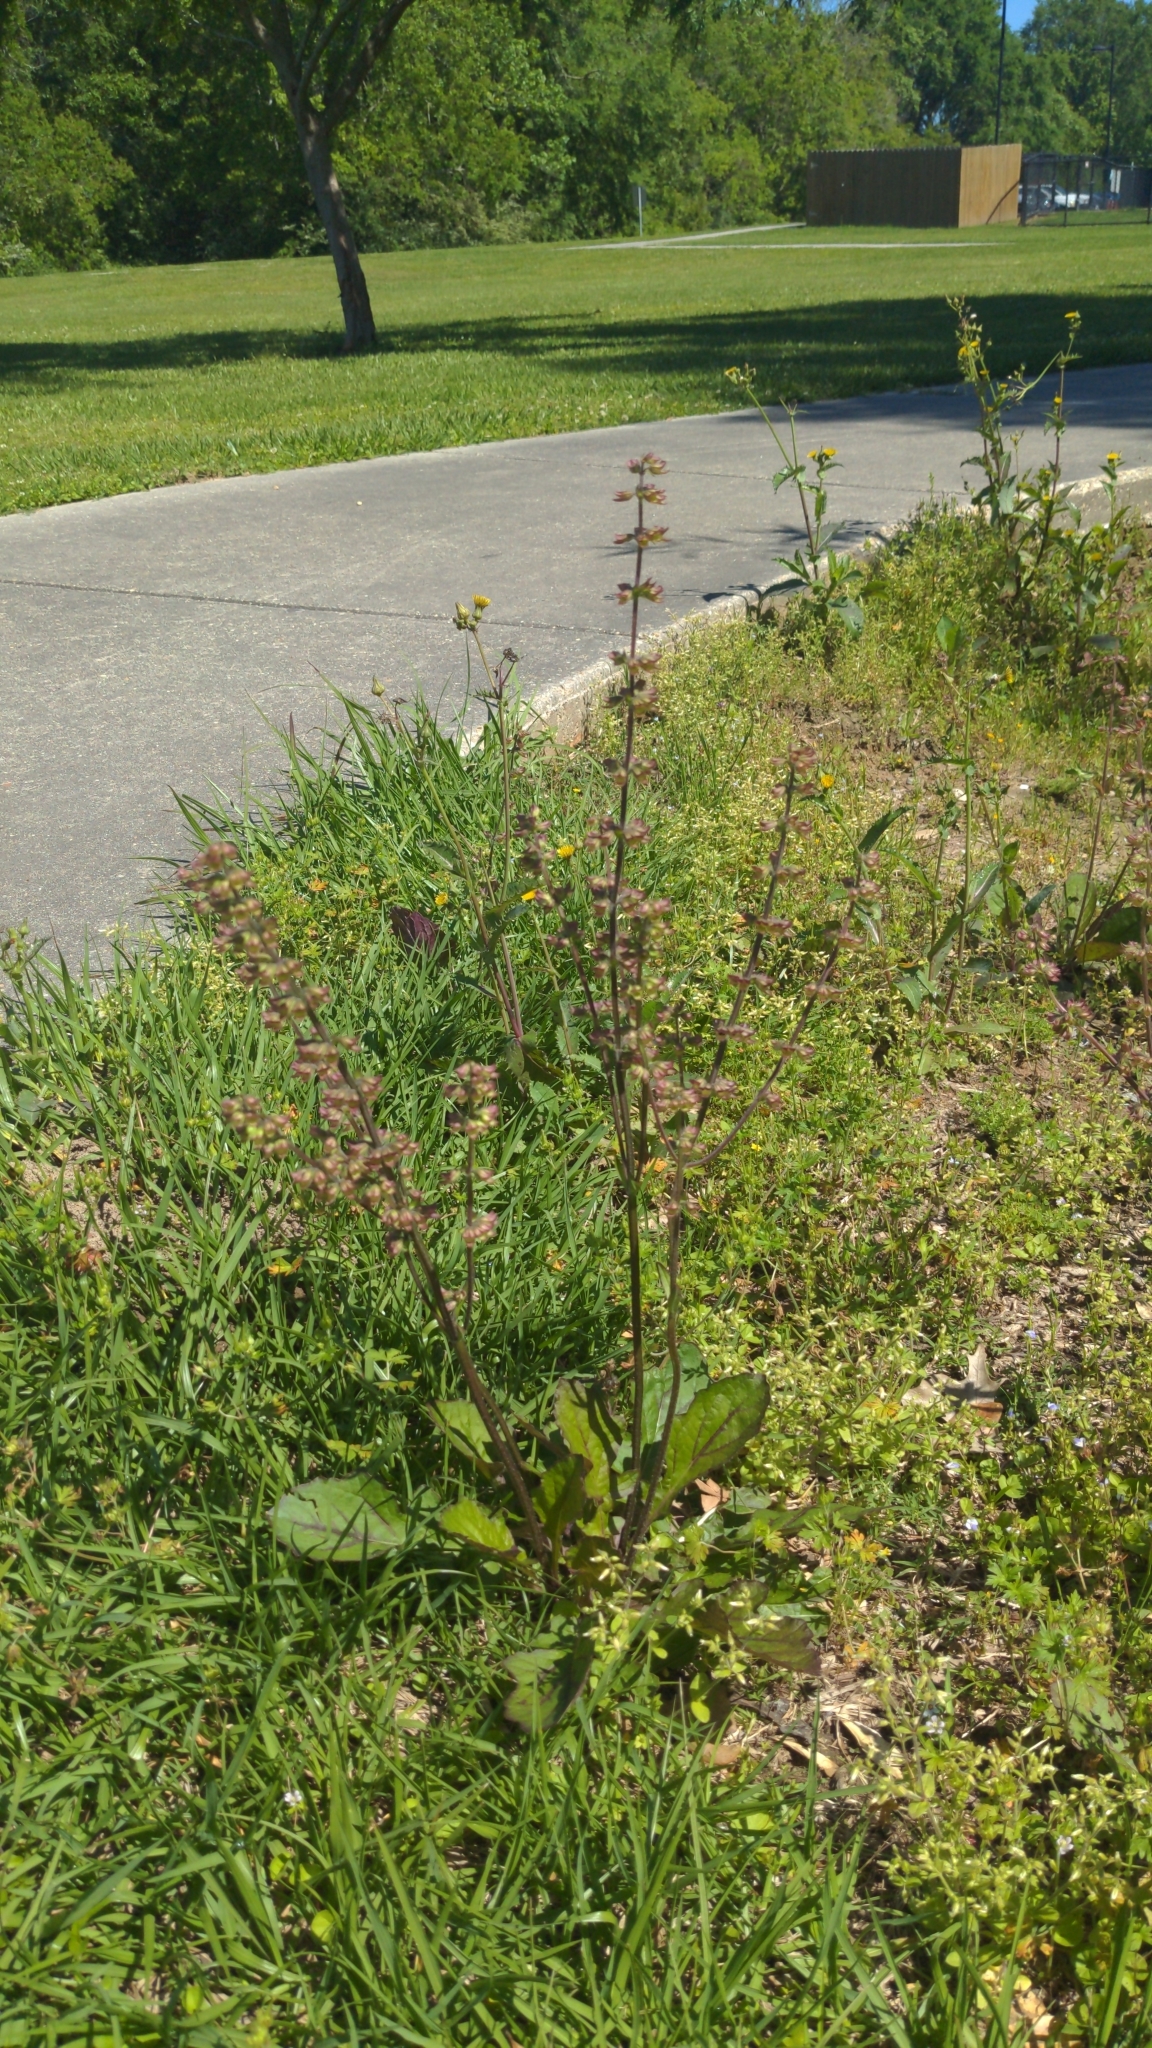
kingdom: Plantae
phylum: Tracheophyta
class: Magnoliopsida
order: Lamiales
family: Lamiaceae
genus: Salvia
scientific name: Salvia lyrata
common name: Cancerweed
